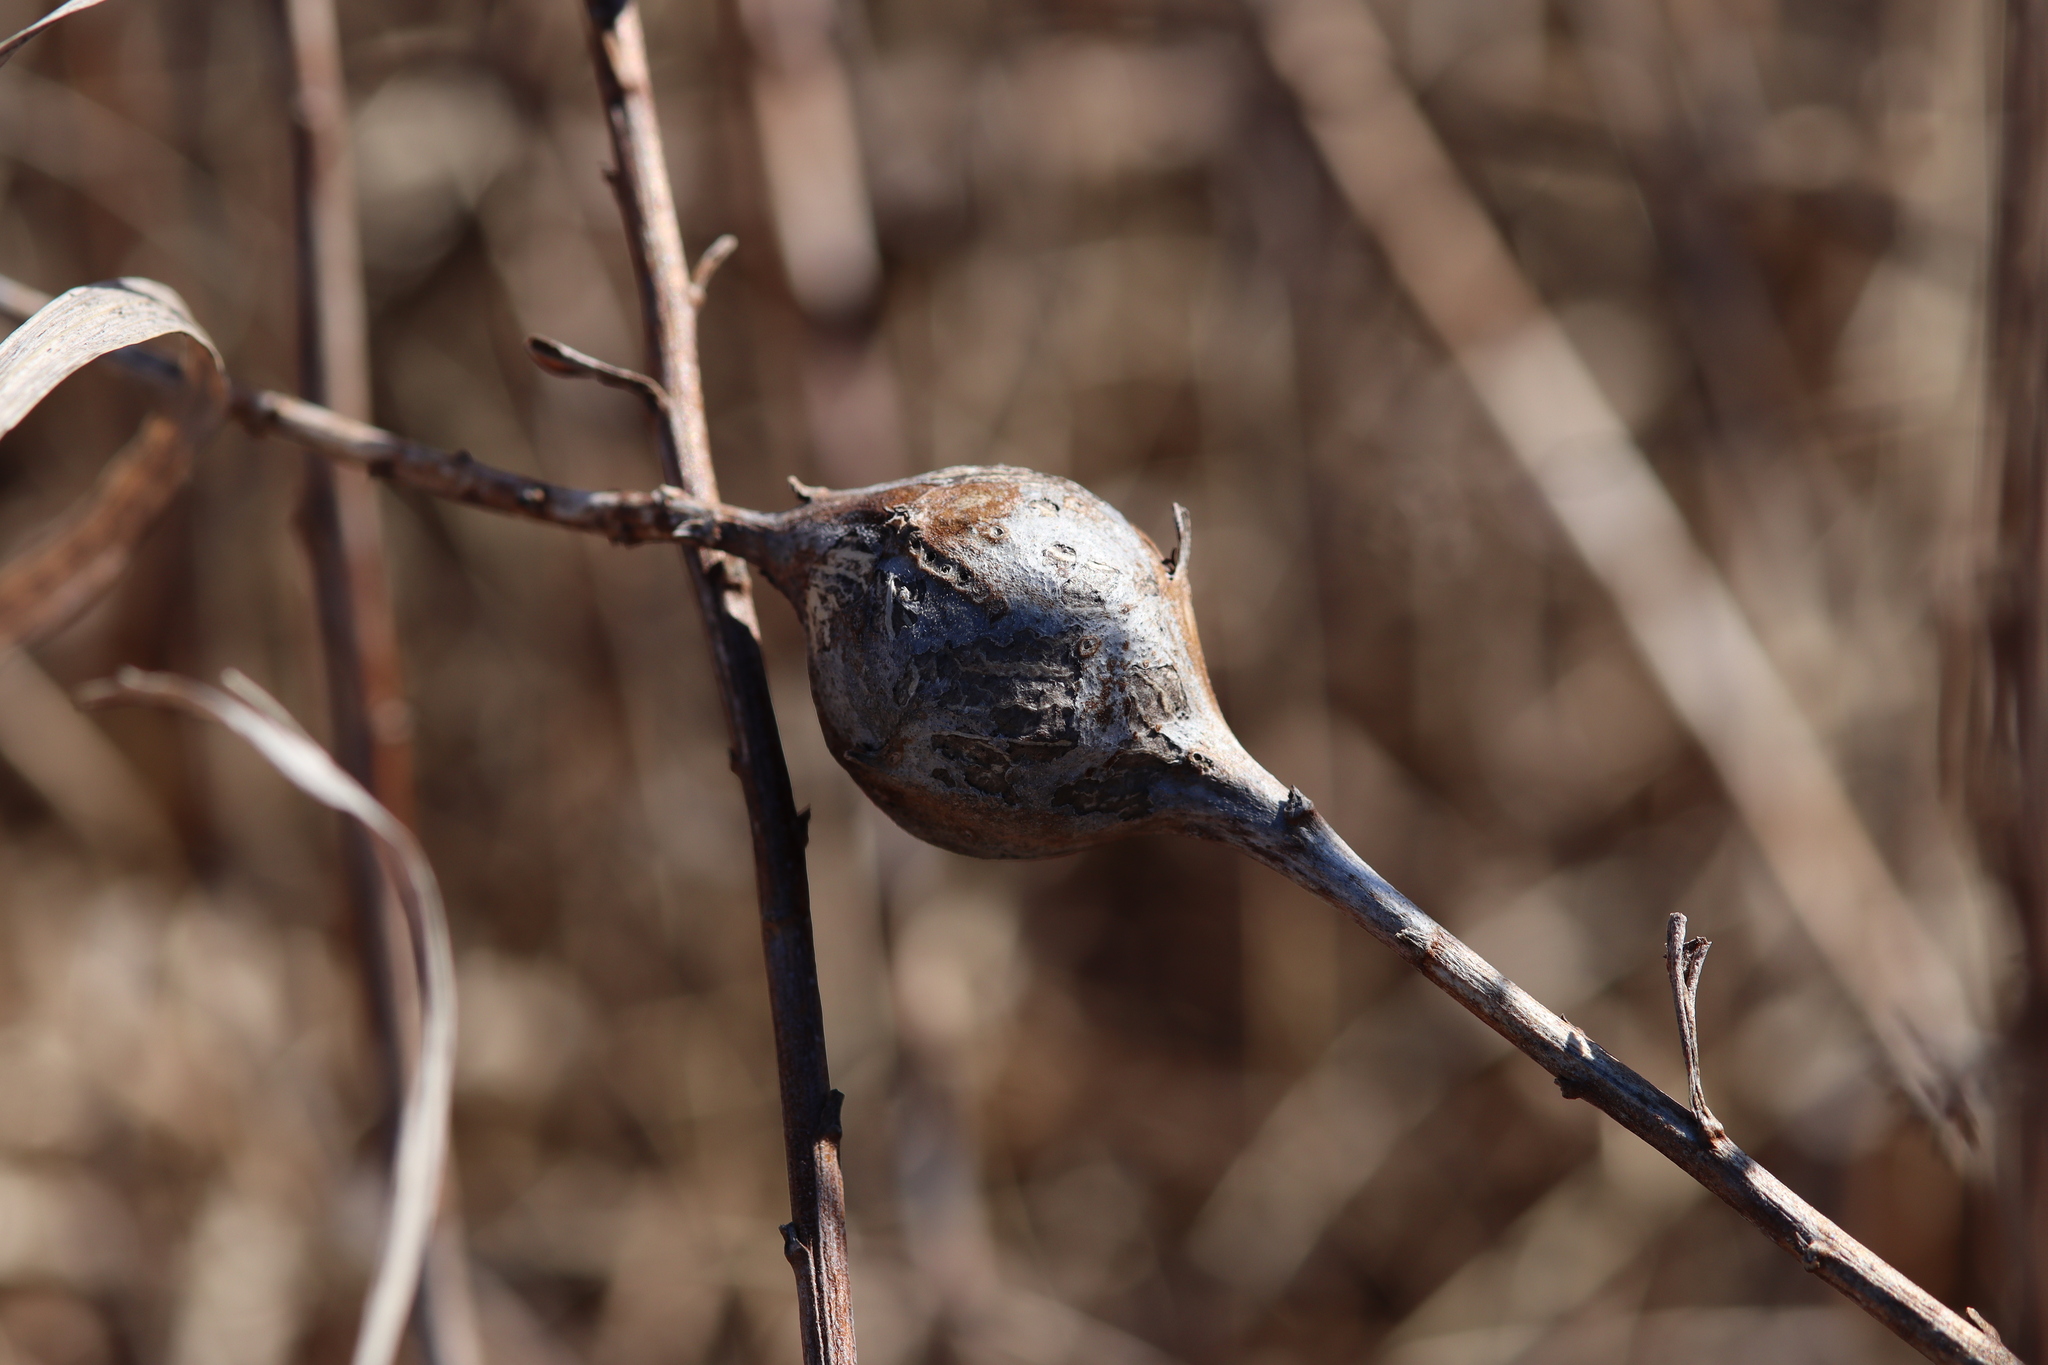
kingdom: Animalia
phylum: Arthropoda
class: Insecta
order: Diptera
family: Tephritidae
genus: Eurosta
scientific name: Eurosta solidaginis
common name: Goldenrod gall fly
